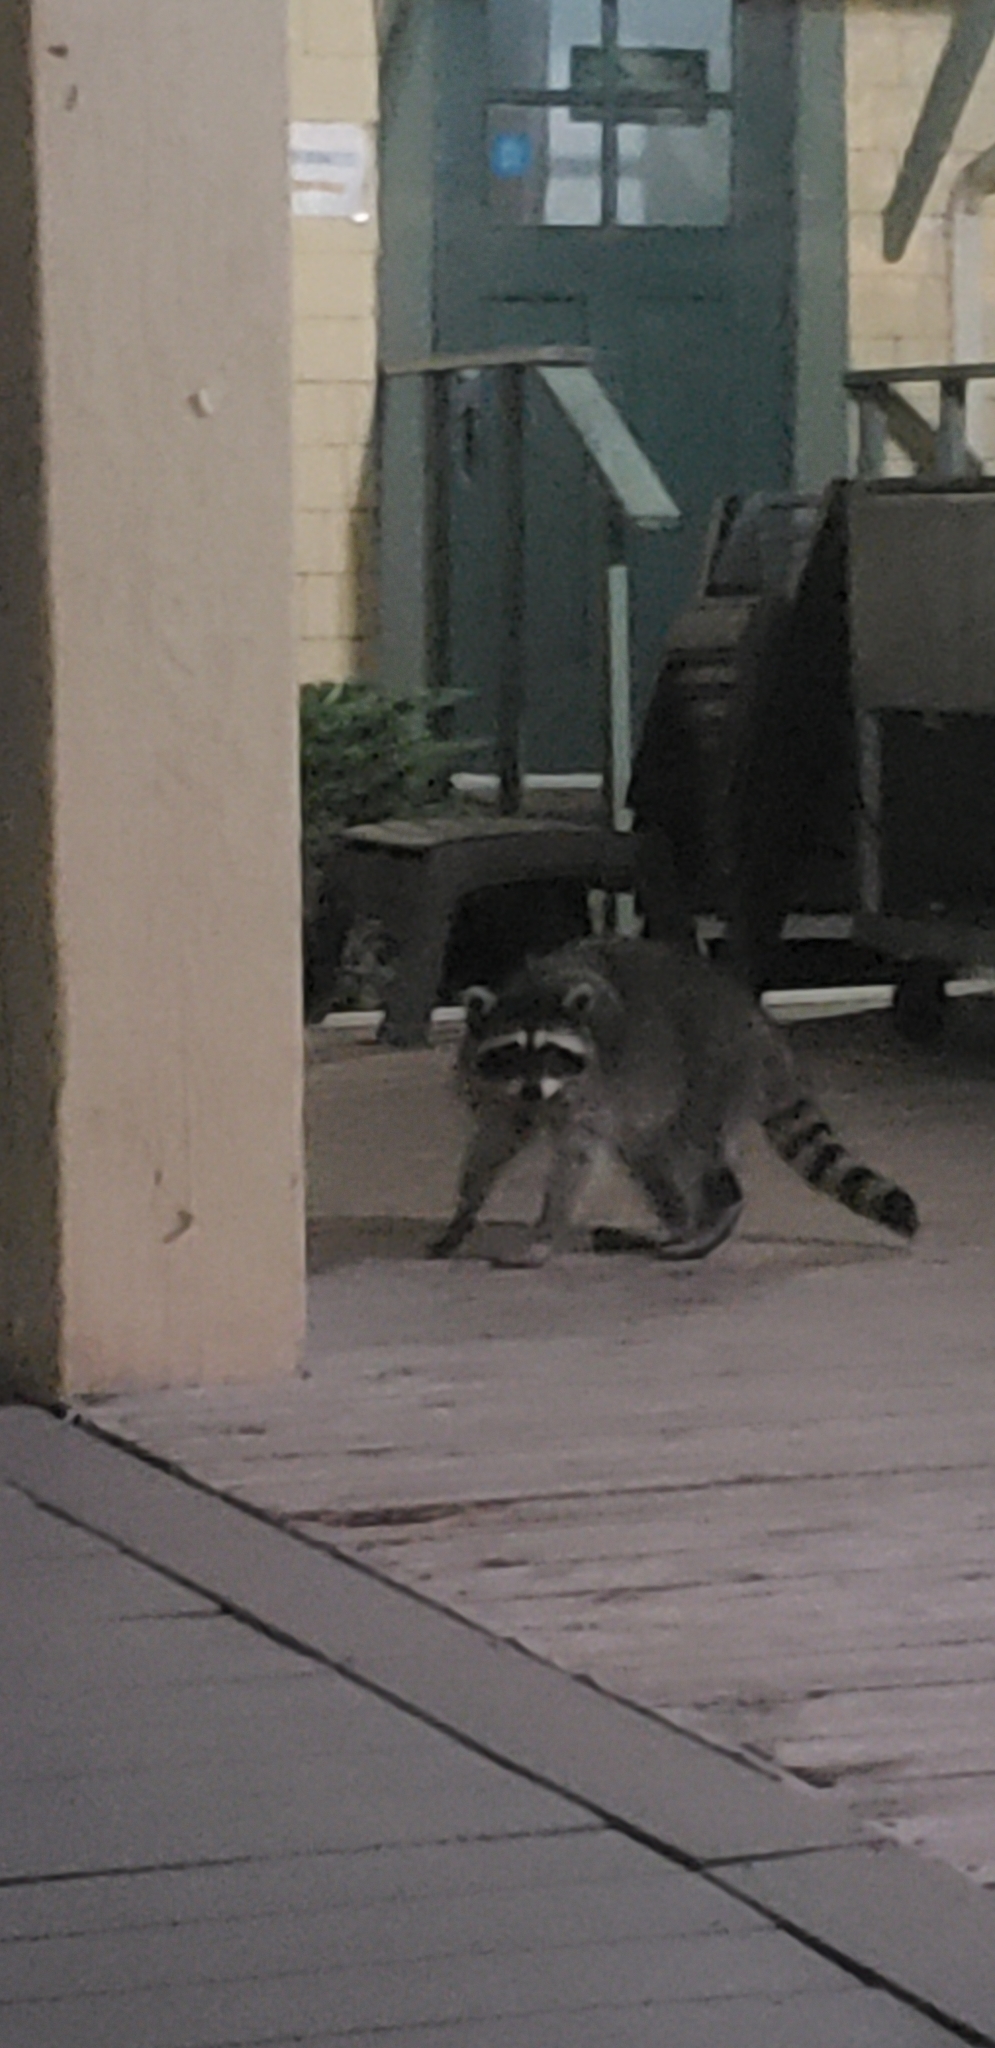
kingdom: Animalia
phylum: Chordata
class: Mammalia
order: Carnivora
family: Procyonidae
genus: Procyon
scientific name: Procyon lotor
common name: Raccoon
